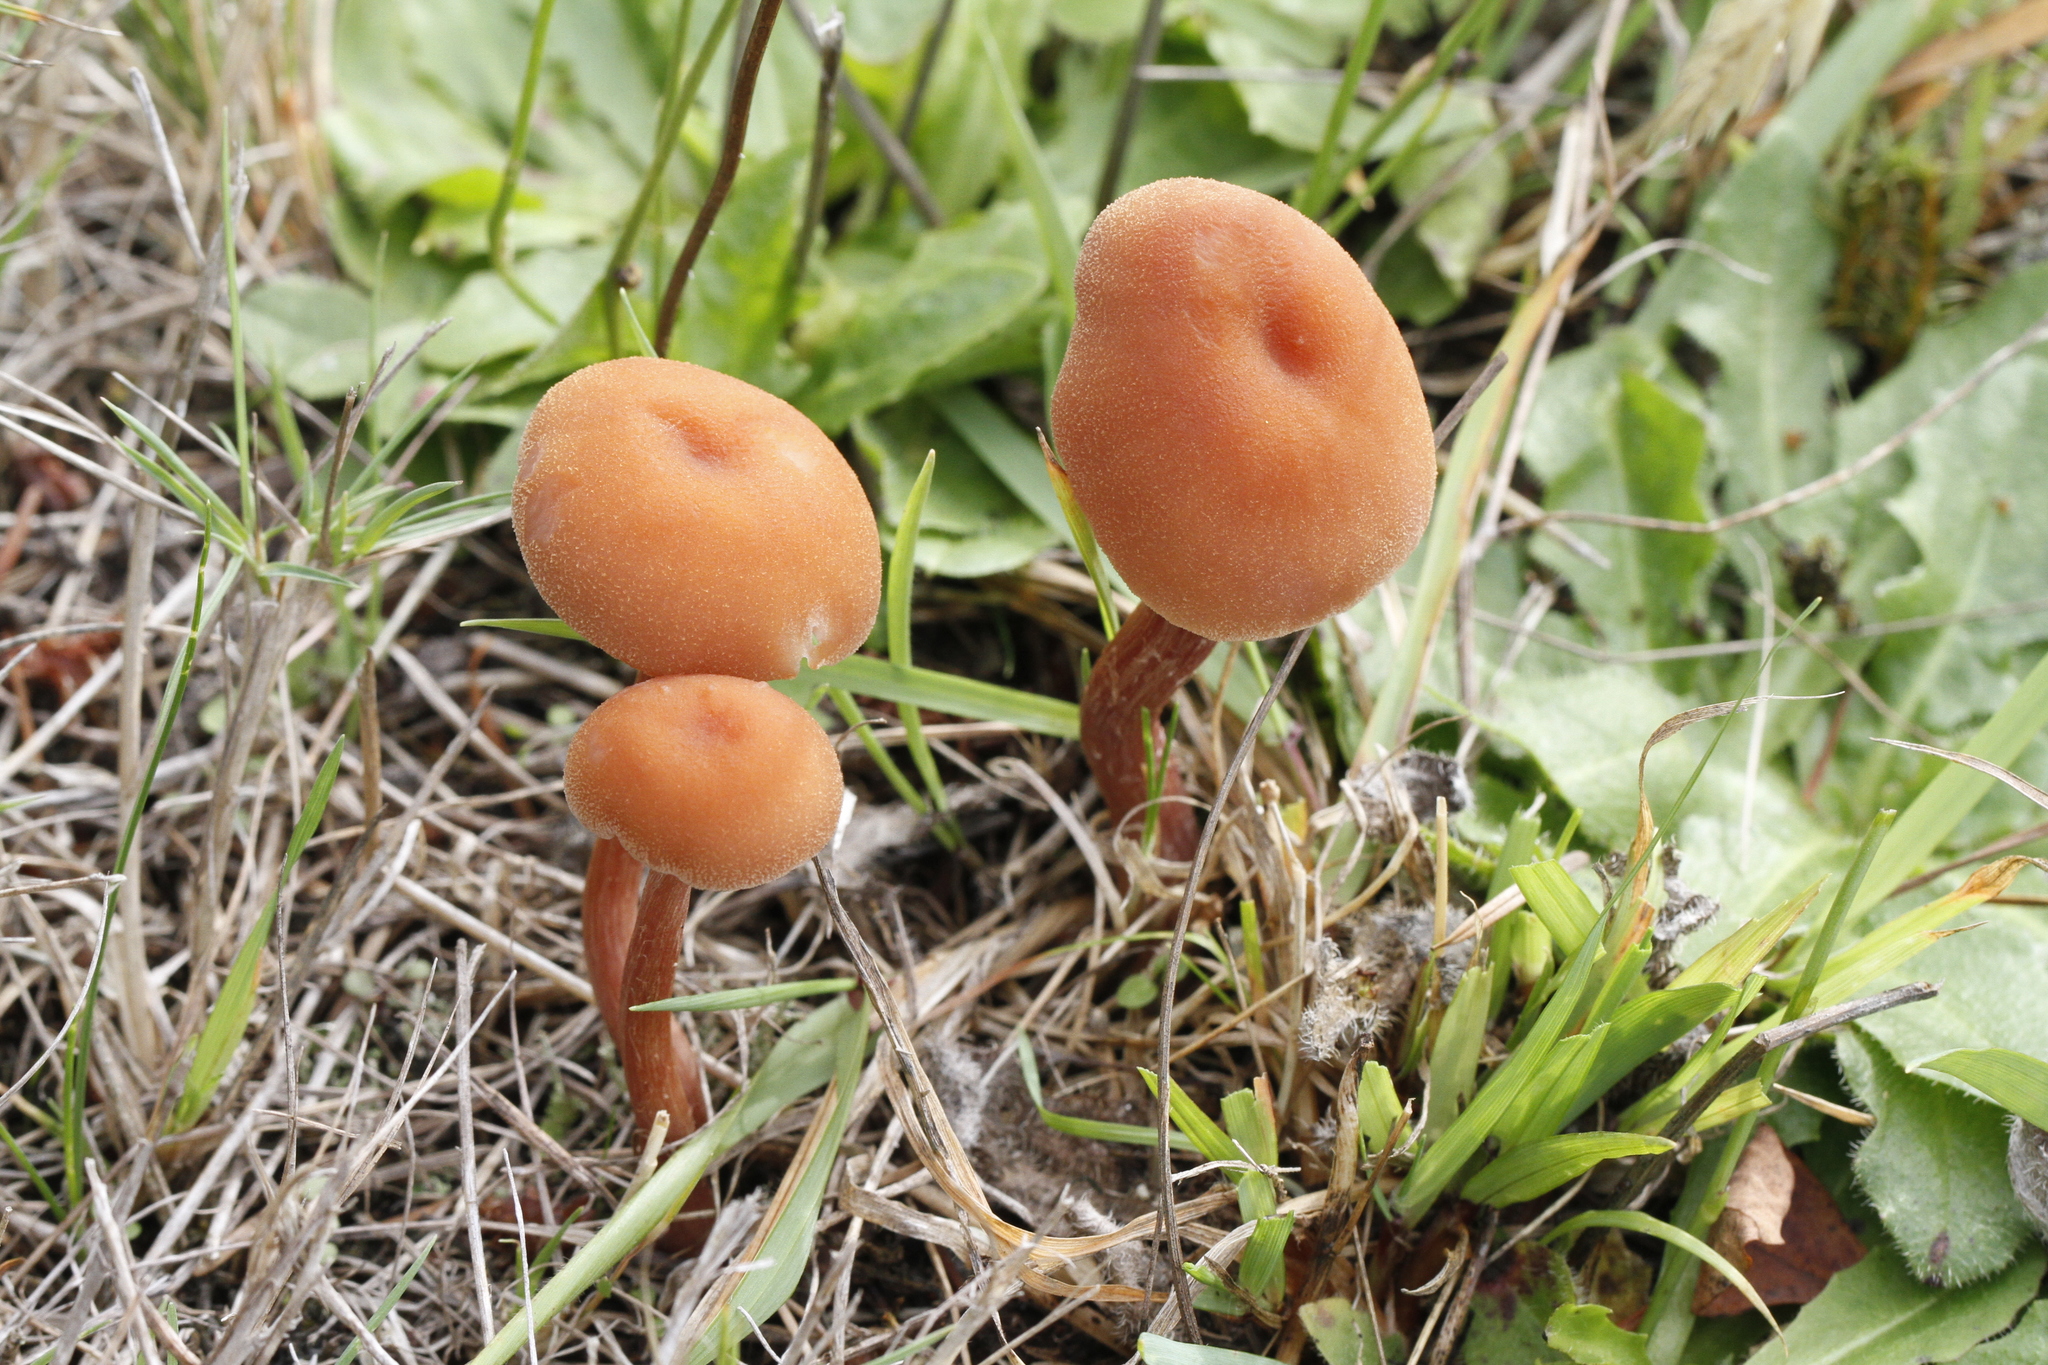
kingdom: Fungi
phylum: Basidiomycota
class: Agaricomycetes
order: Agaricales
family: Hydnangiaceae
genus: Laccaria
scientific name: Laccaria laccata
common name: Deceiver
